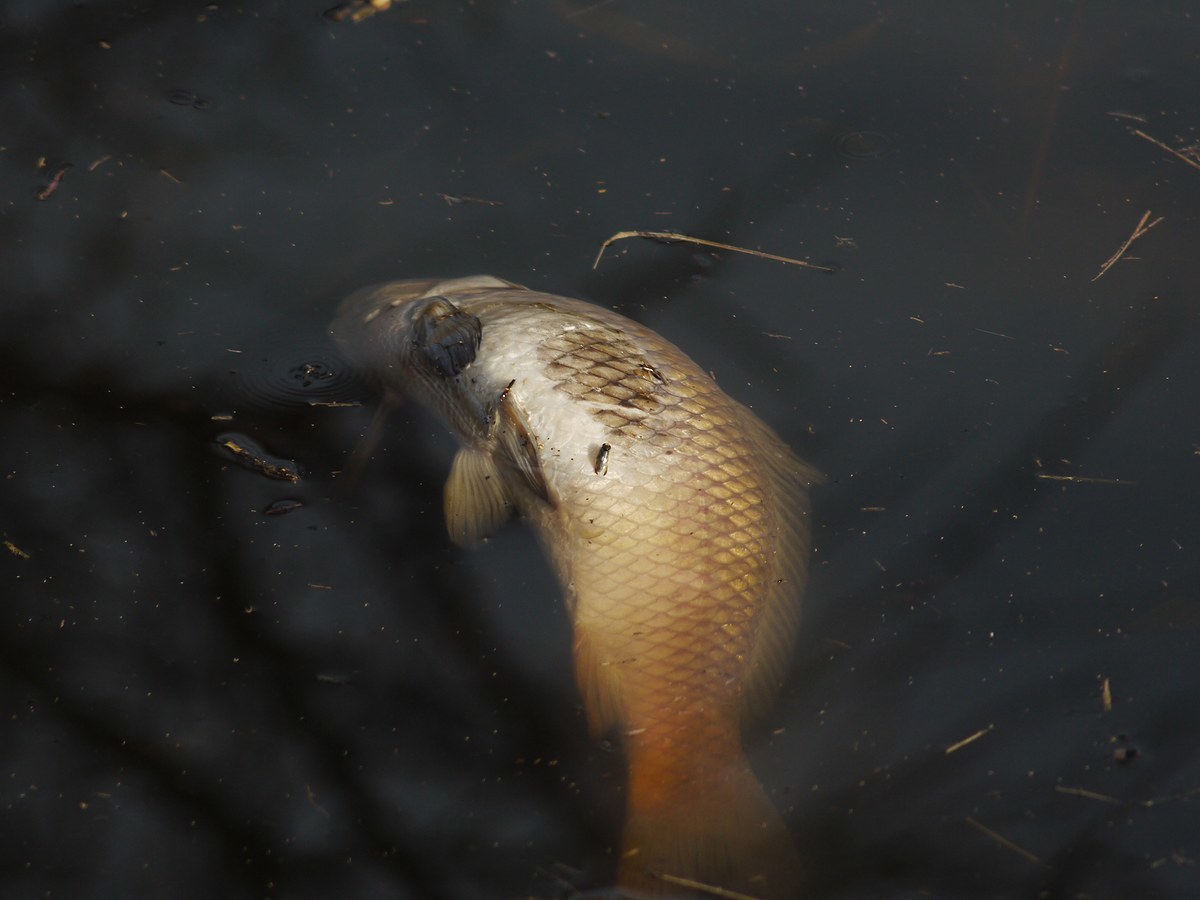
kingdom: Animalia
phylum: Chordata
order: Cypriniformes
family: Cyprinidae
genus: Cyprinus
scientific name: Cyprinus carpio
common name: Common carp
